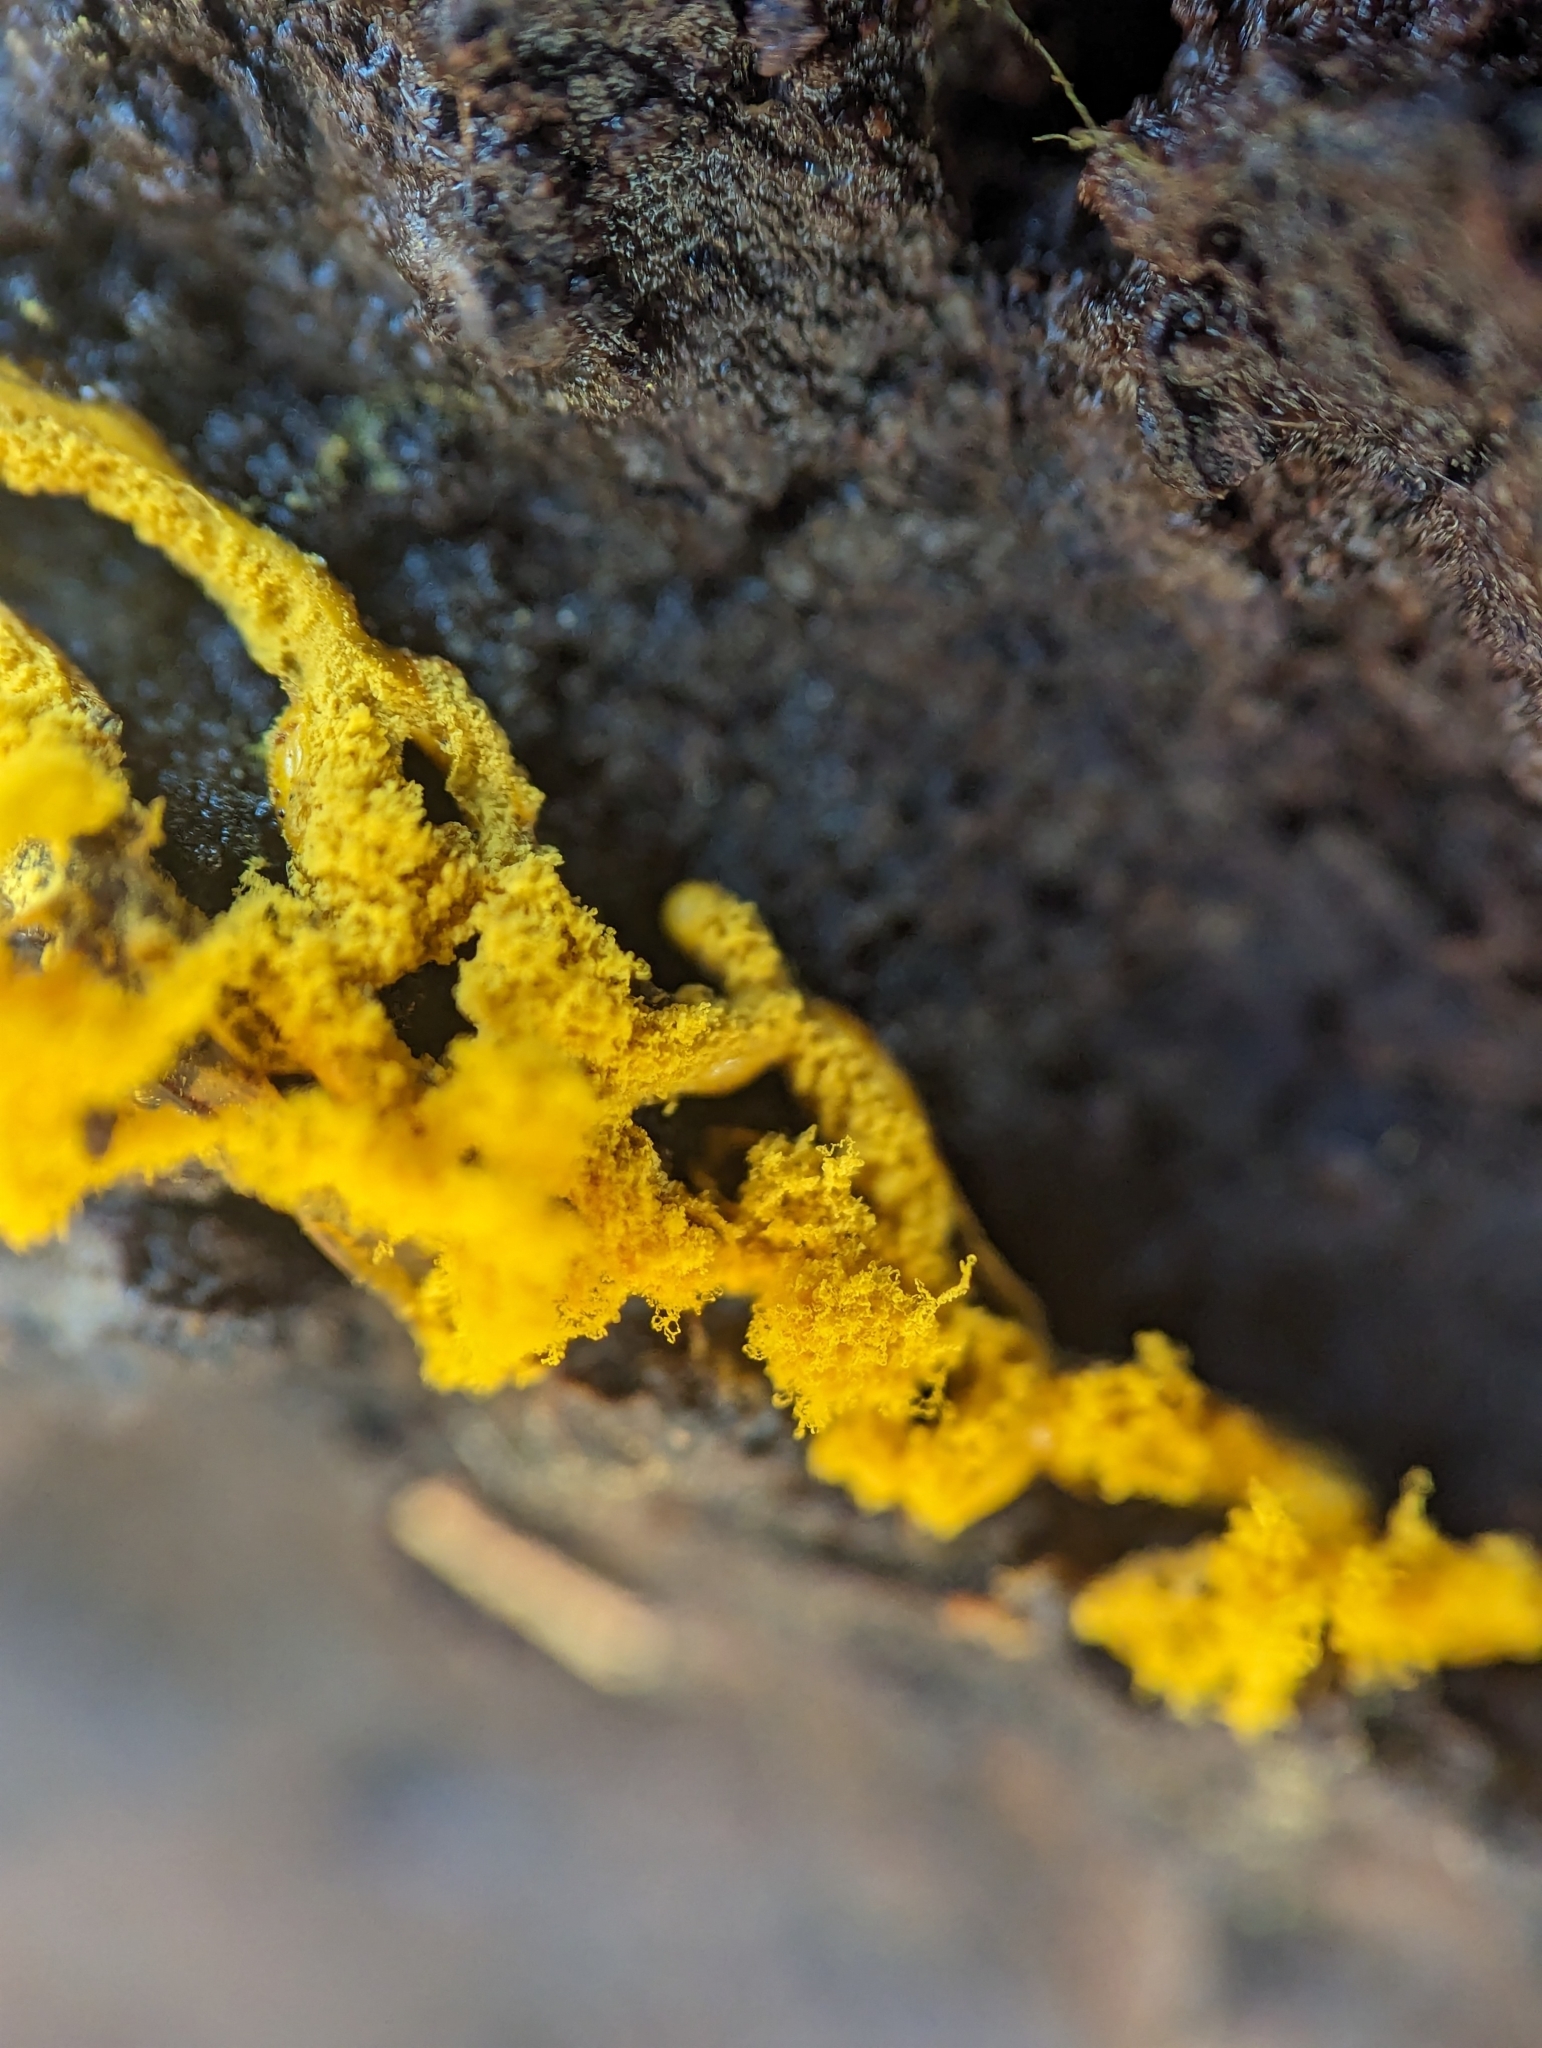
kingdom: Protozoa
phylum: Mycetozoa
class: Myxomycetes
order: Trichiales
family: Arcyriaceae
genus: Hemitrichia
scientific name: Hemitrichia serpula
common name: Pretzel slime mold
